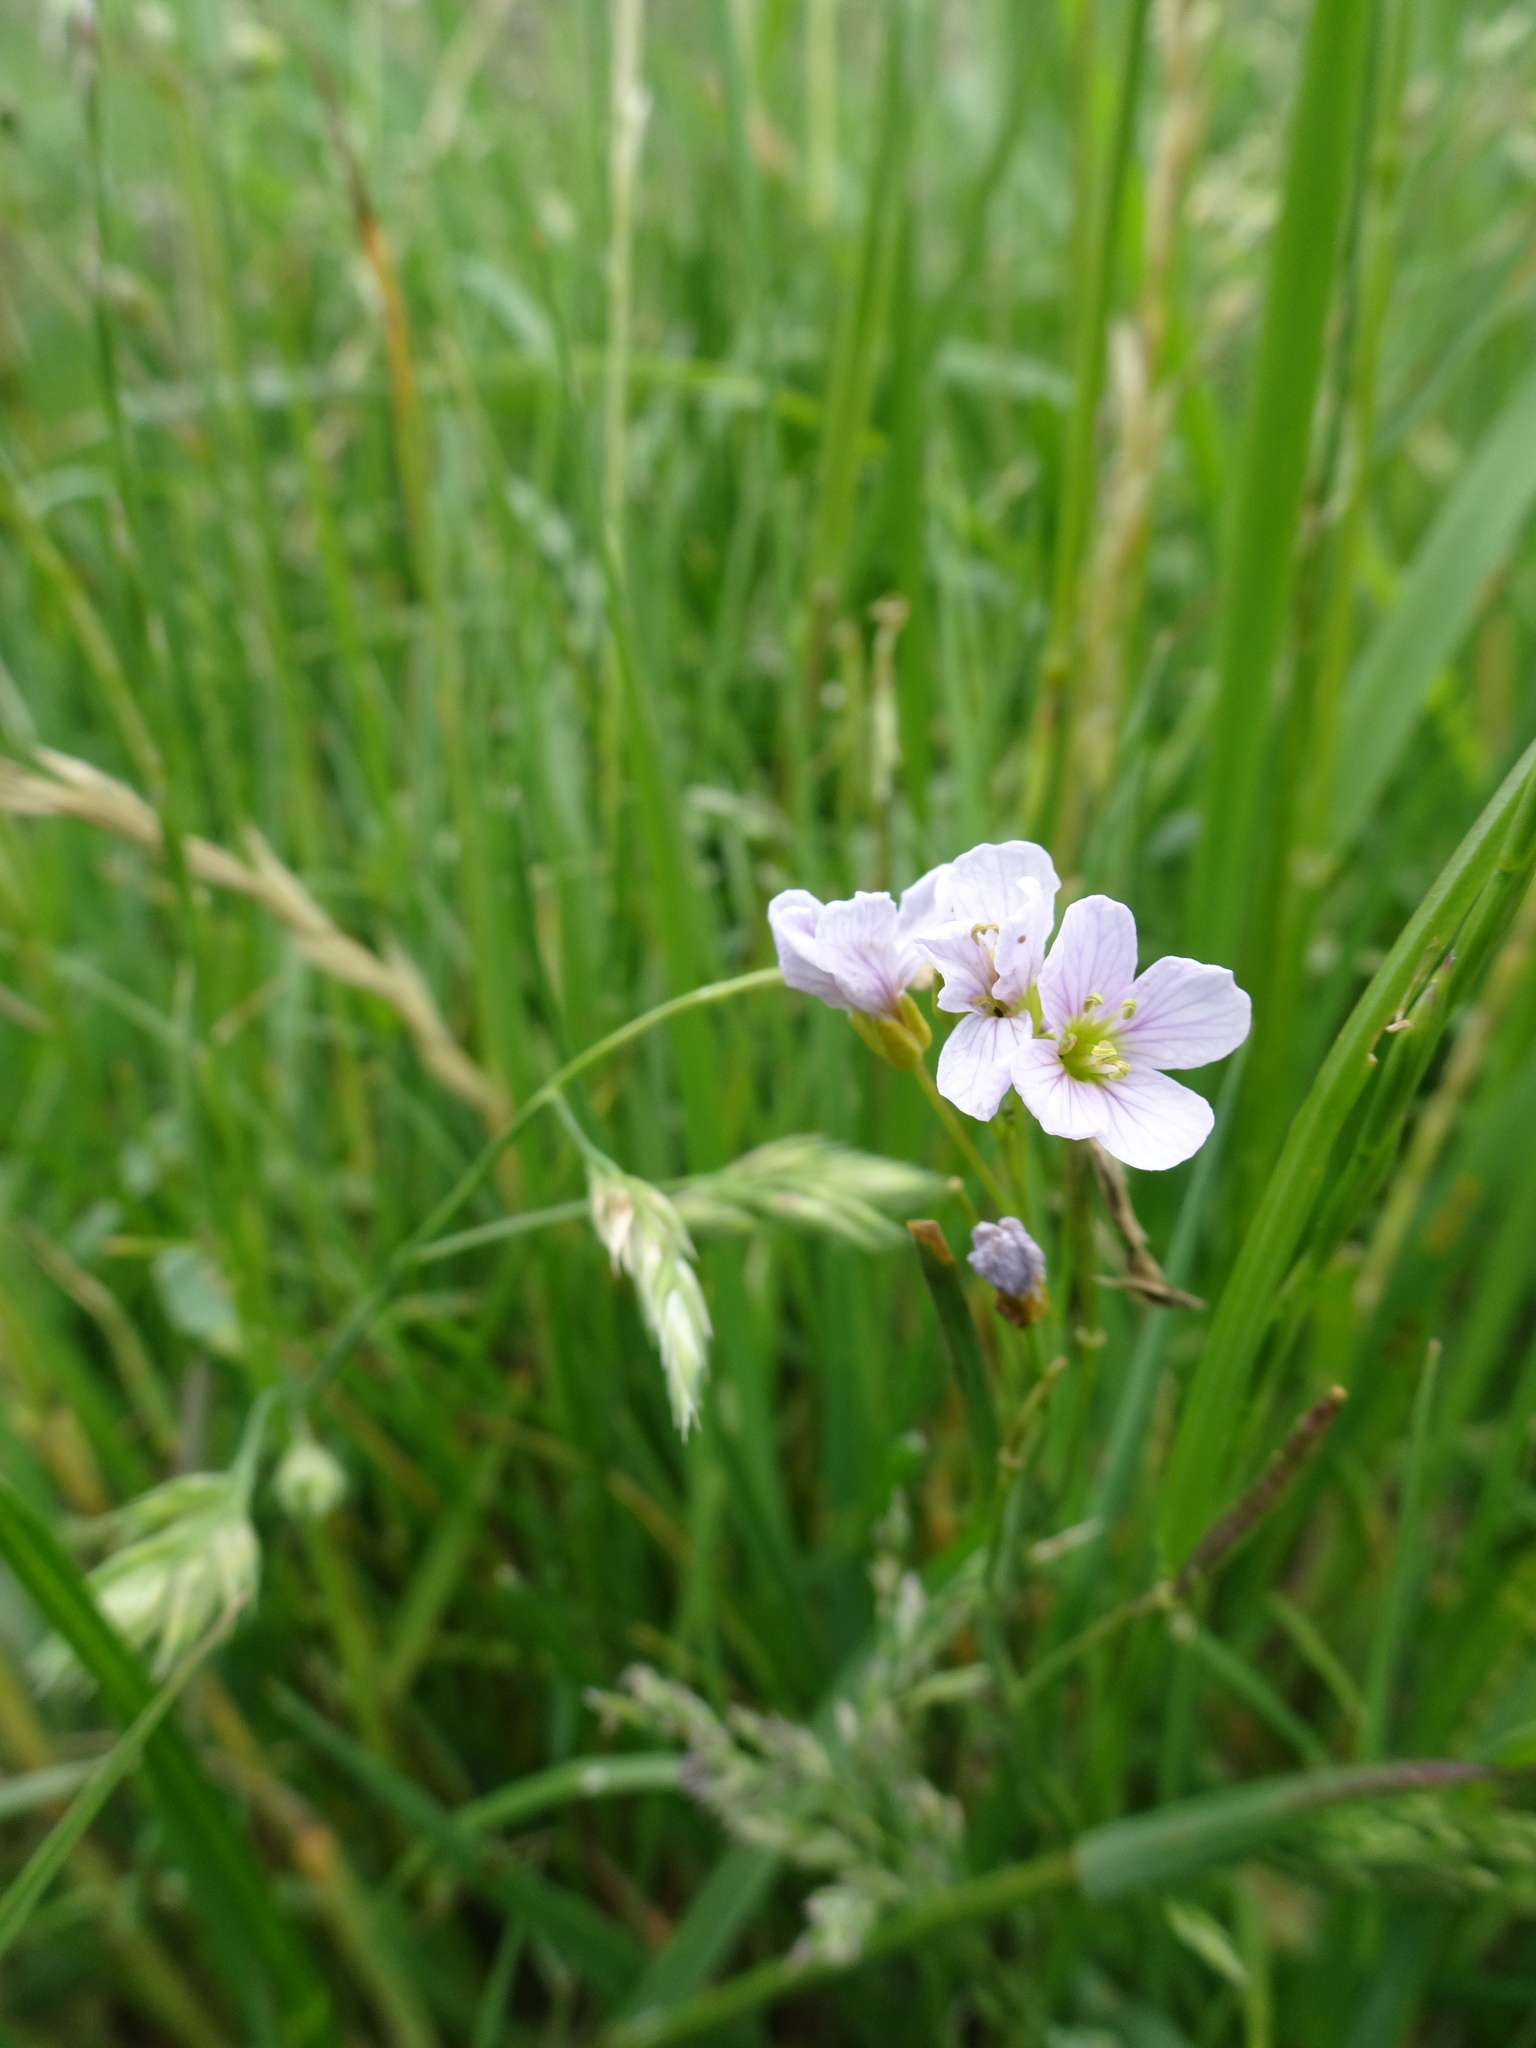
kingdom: Plantae
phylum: Tracheophyta
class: Magnoliopsida
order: Brassicales
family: Brassicaceae
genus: Cardamine
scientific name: Cardamine pratensis
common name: Cuckoo flower
